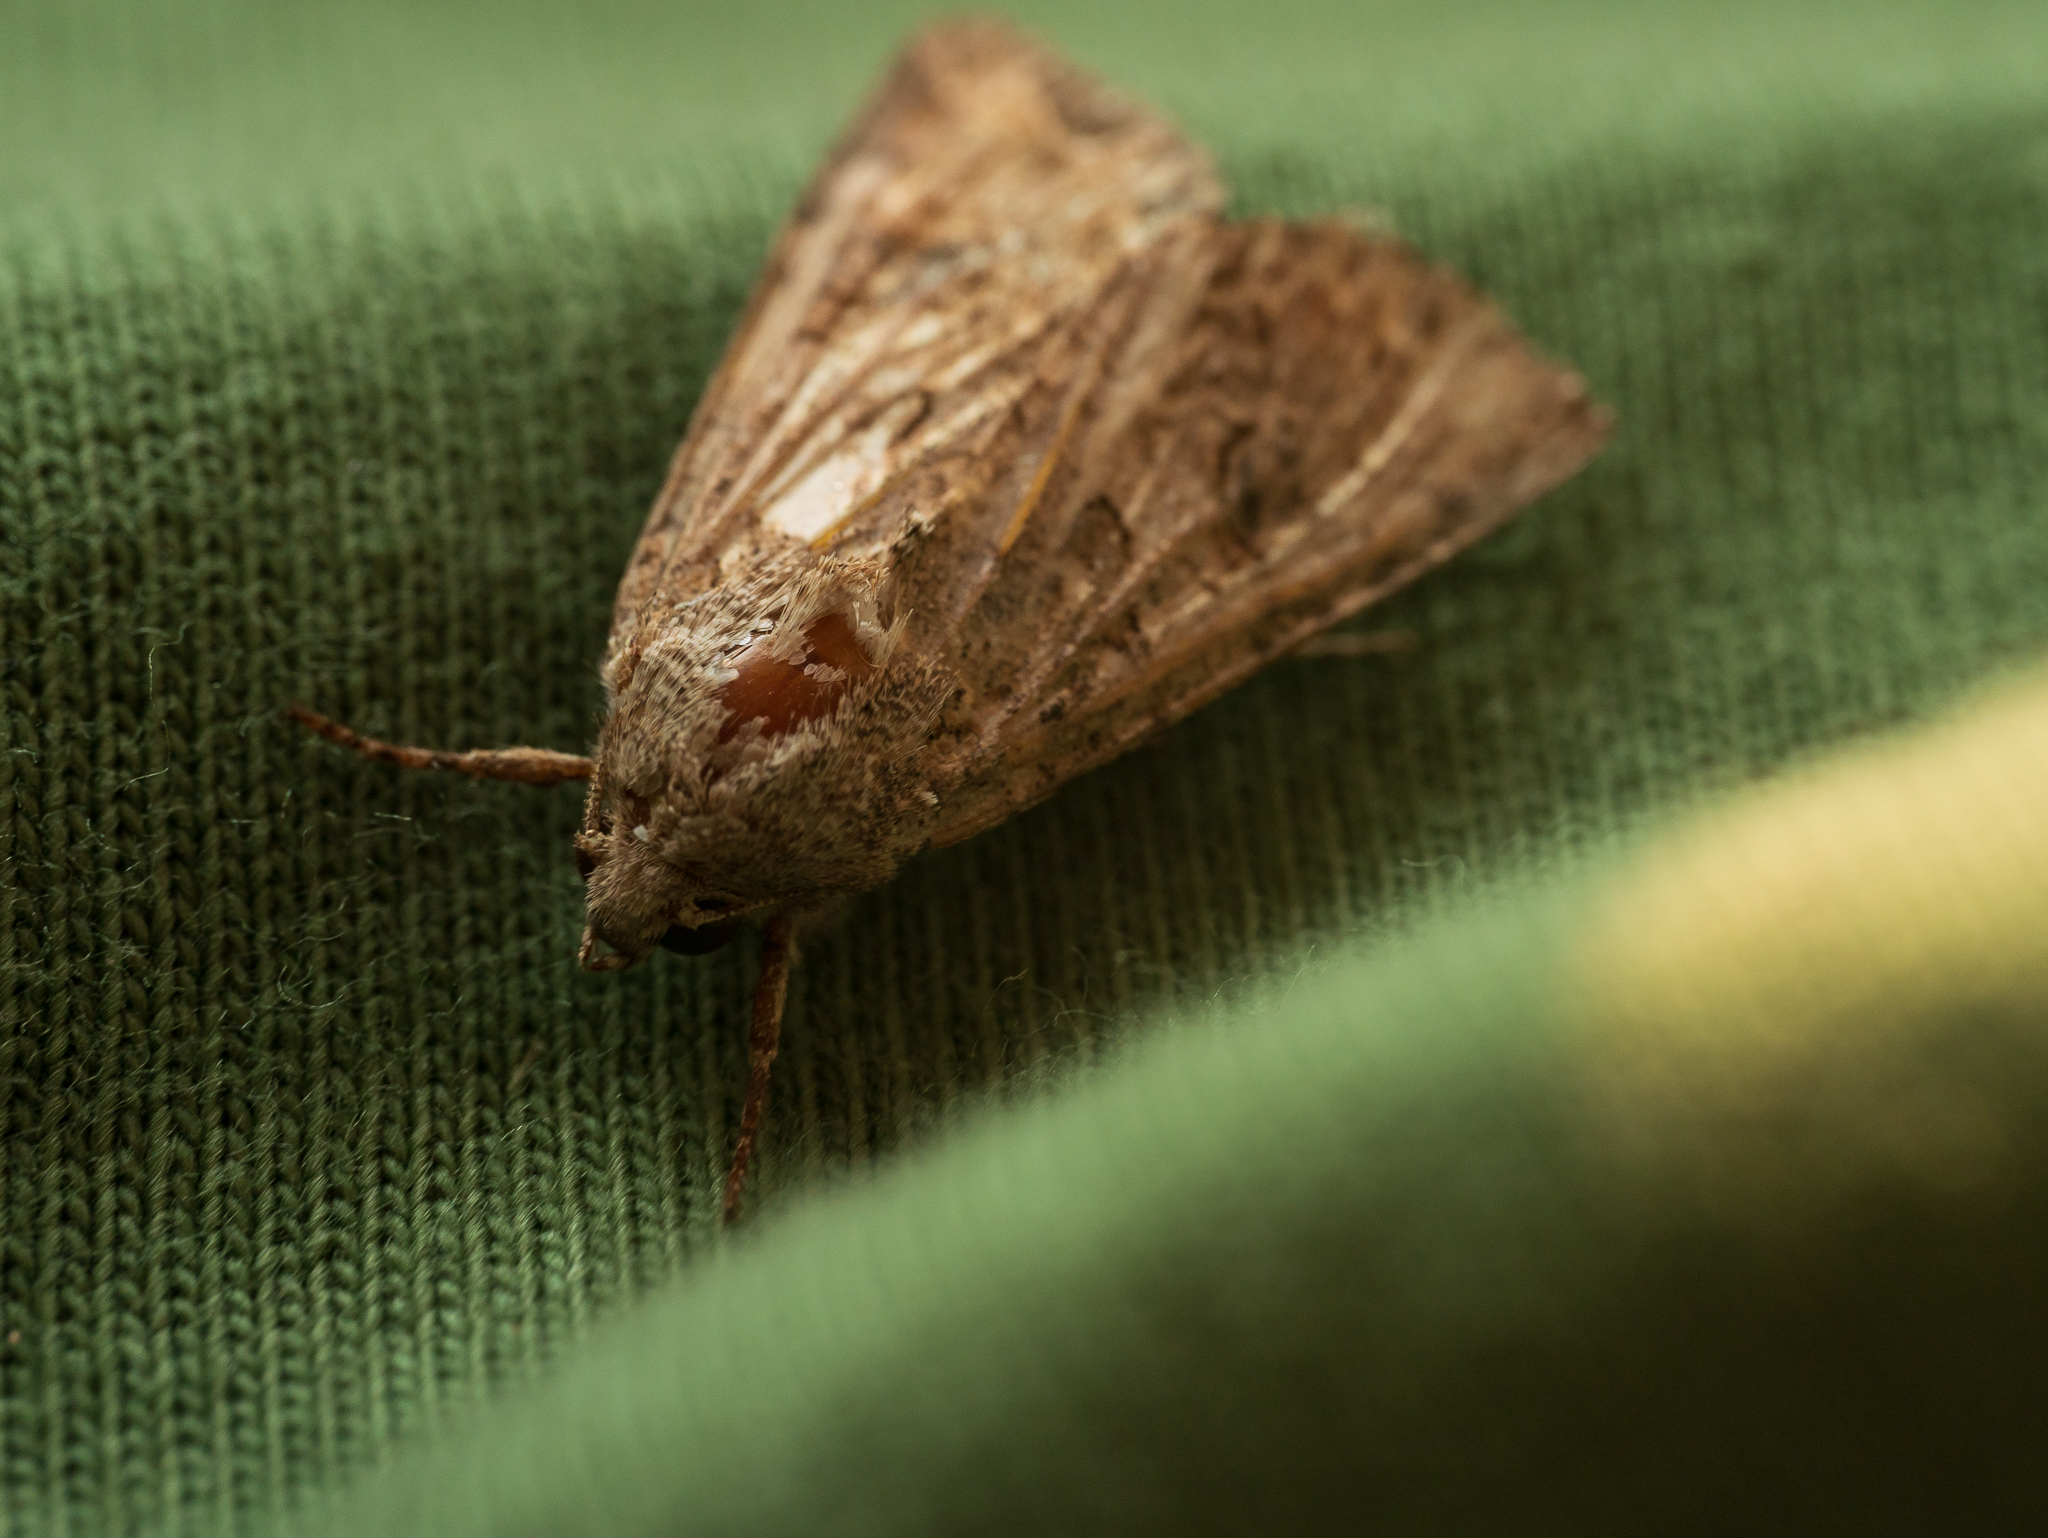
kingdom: Animalia
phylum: Arthropoda
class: Insecta
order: Lepidoptera
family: Noctuidae
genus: Anarta
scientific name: Anarta trifolii
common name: Clover cutworm moth
